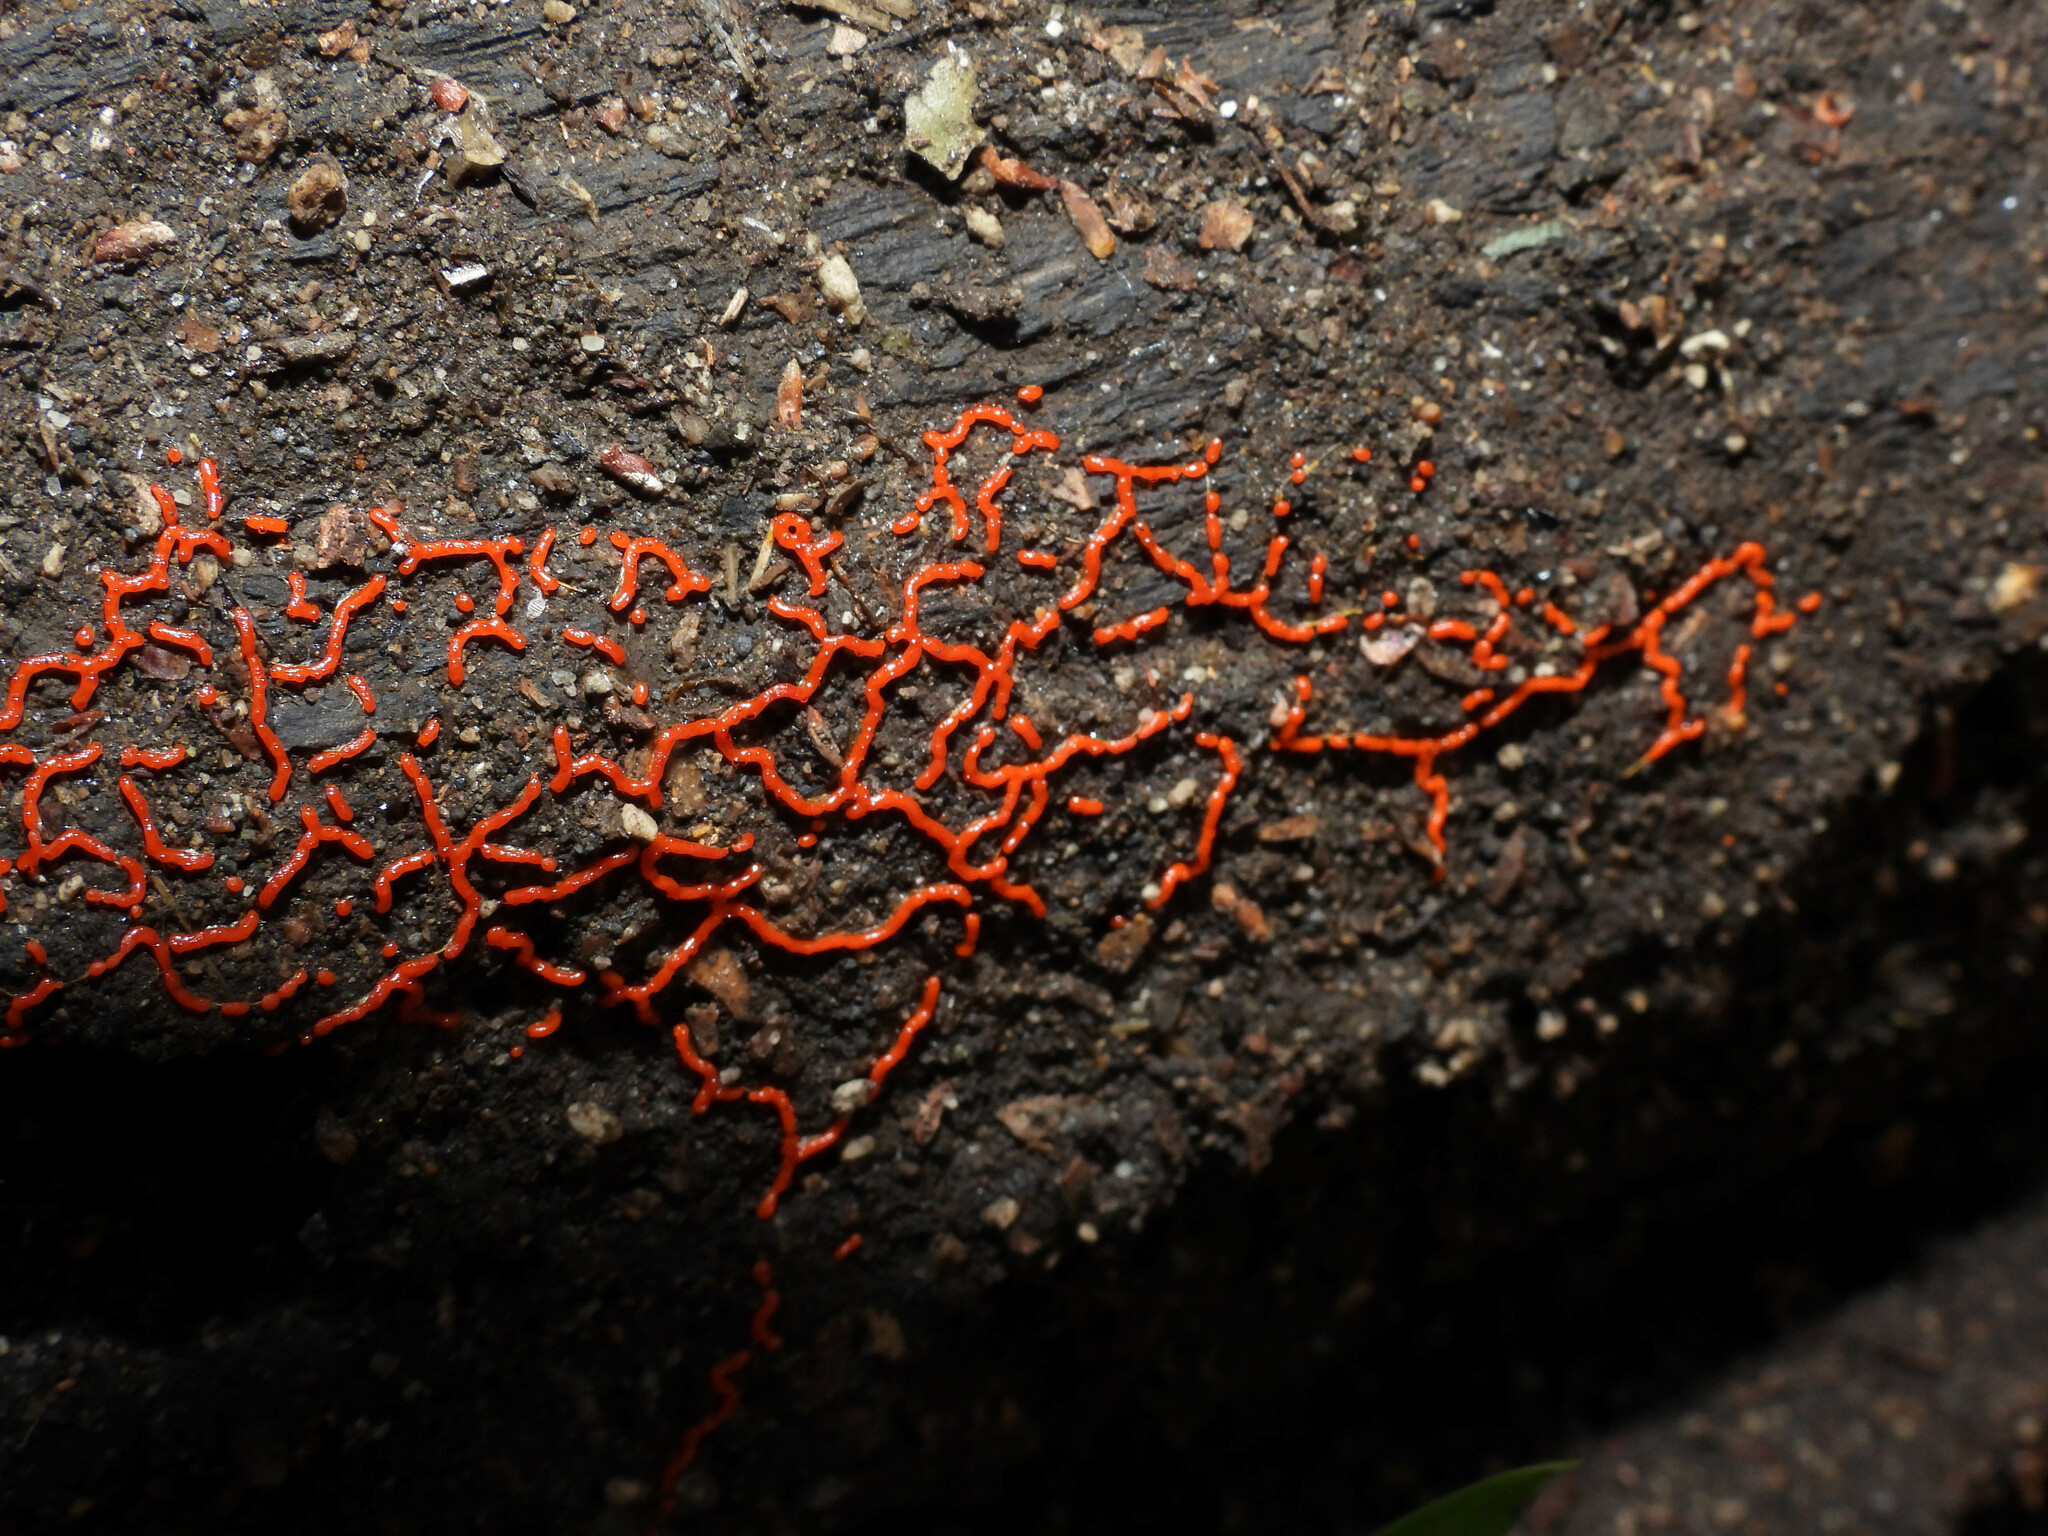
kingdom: Protozoa
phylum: Mycetozoa
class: Myxomycetes
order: Physarales
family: Physaraceae
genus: Willkommlangea
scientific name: Willkommlangea reticulata
